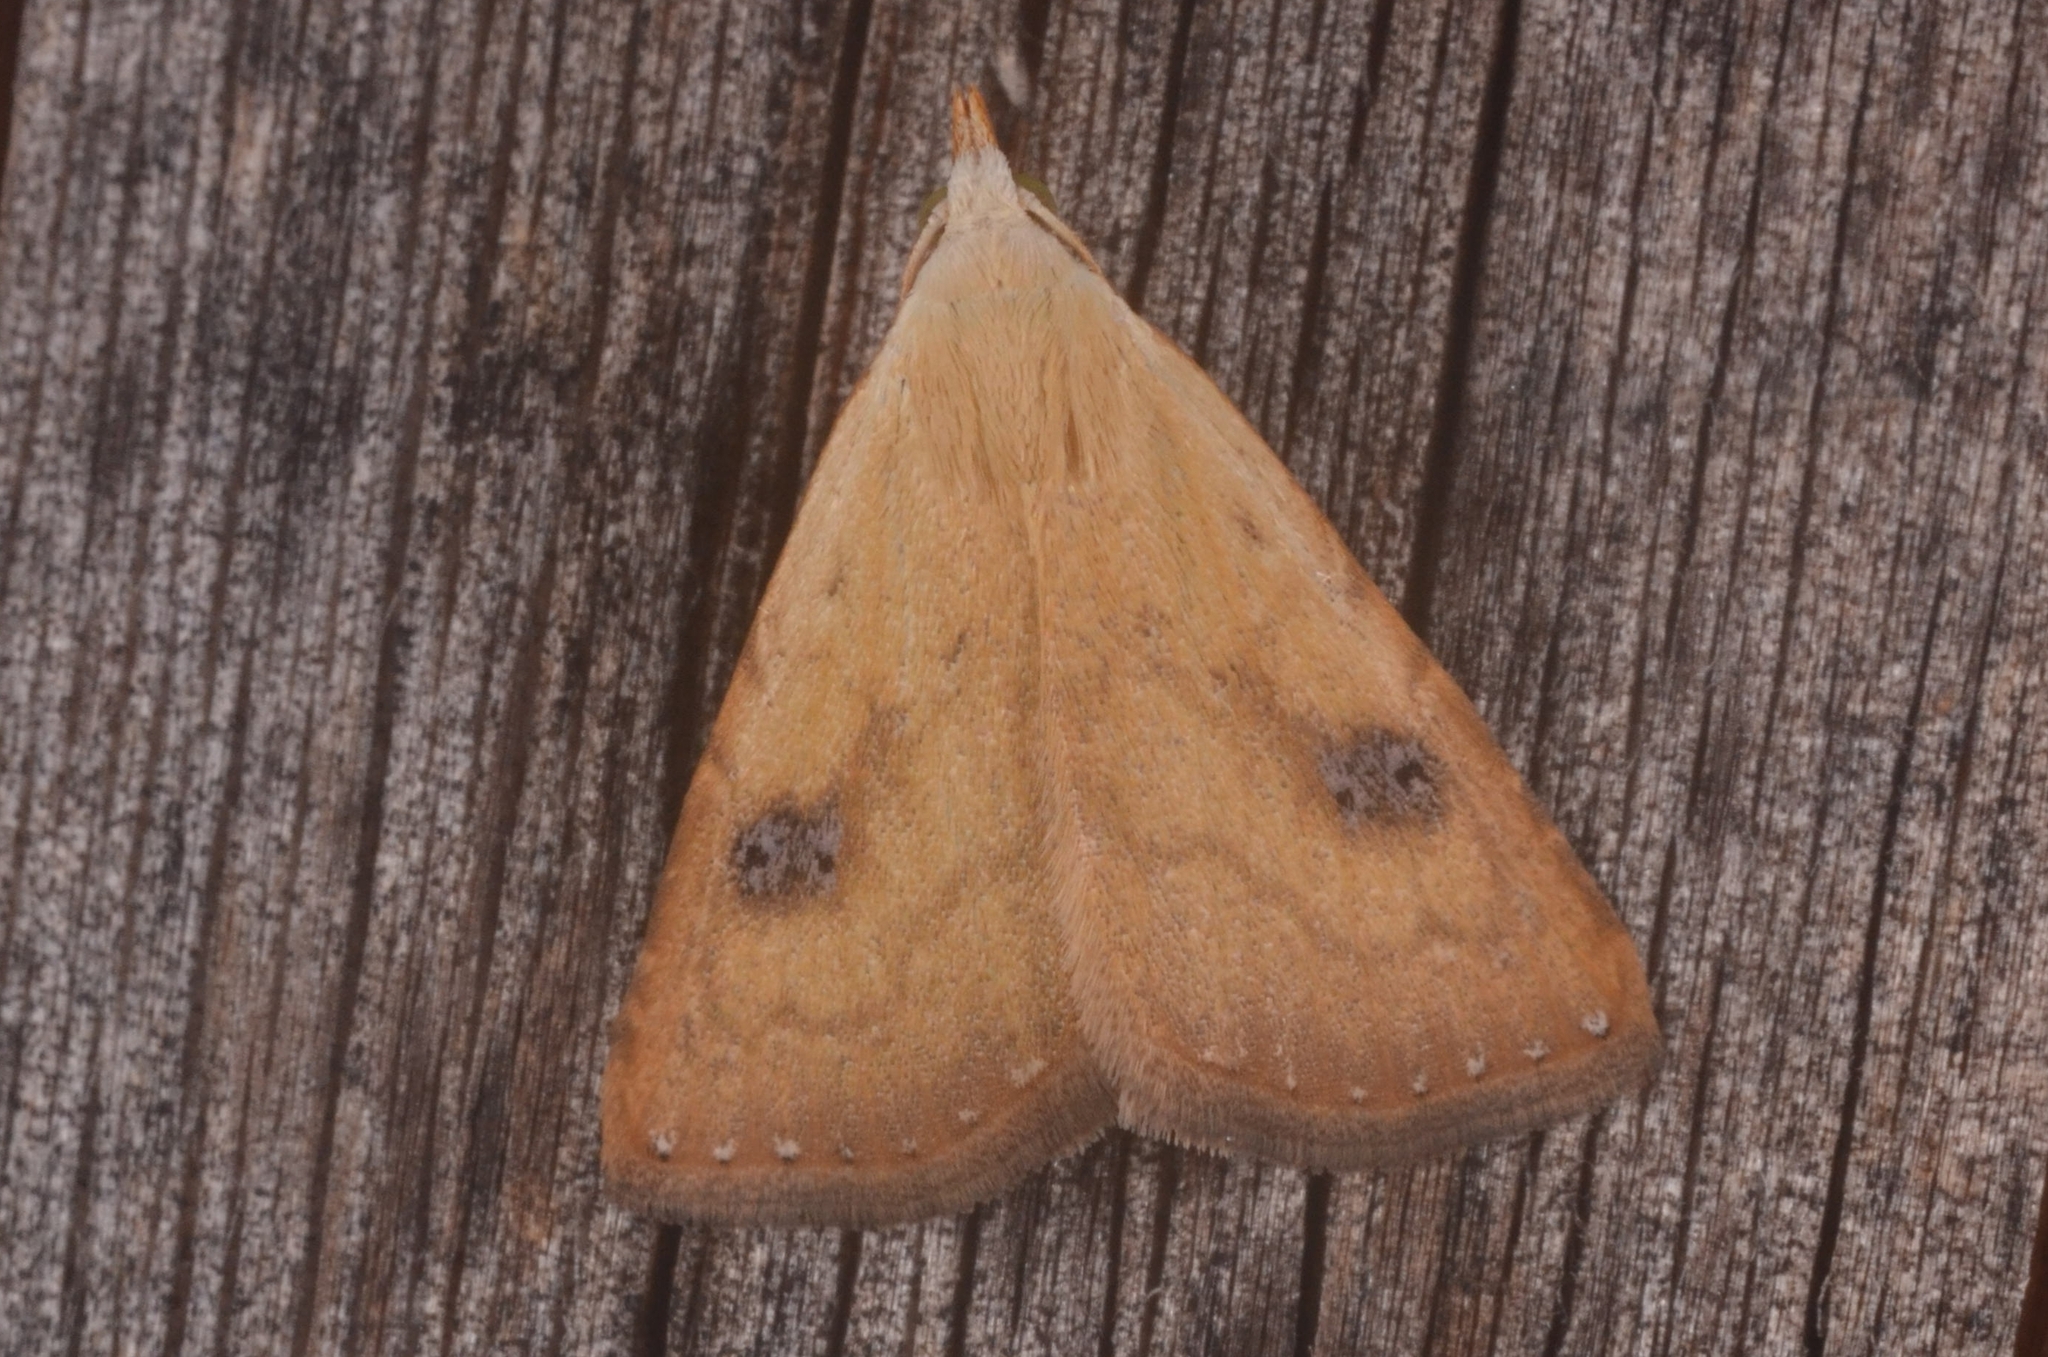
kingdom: Animalia
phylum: Arthropoda
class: Insecta
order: Lepidoptera
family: Erebidae
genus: Rivula
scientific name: Rivula sericealis
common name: Straw dot
